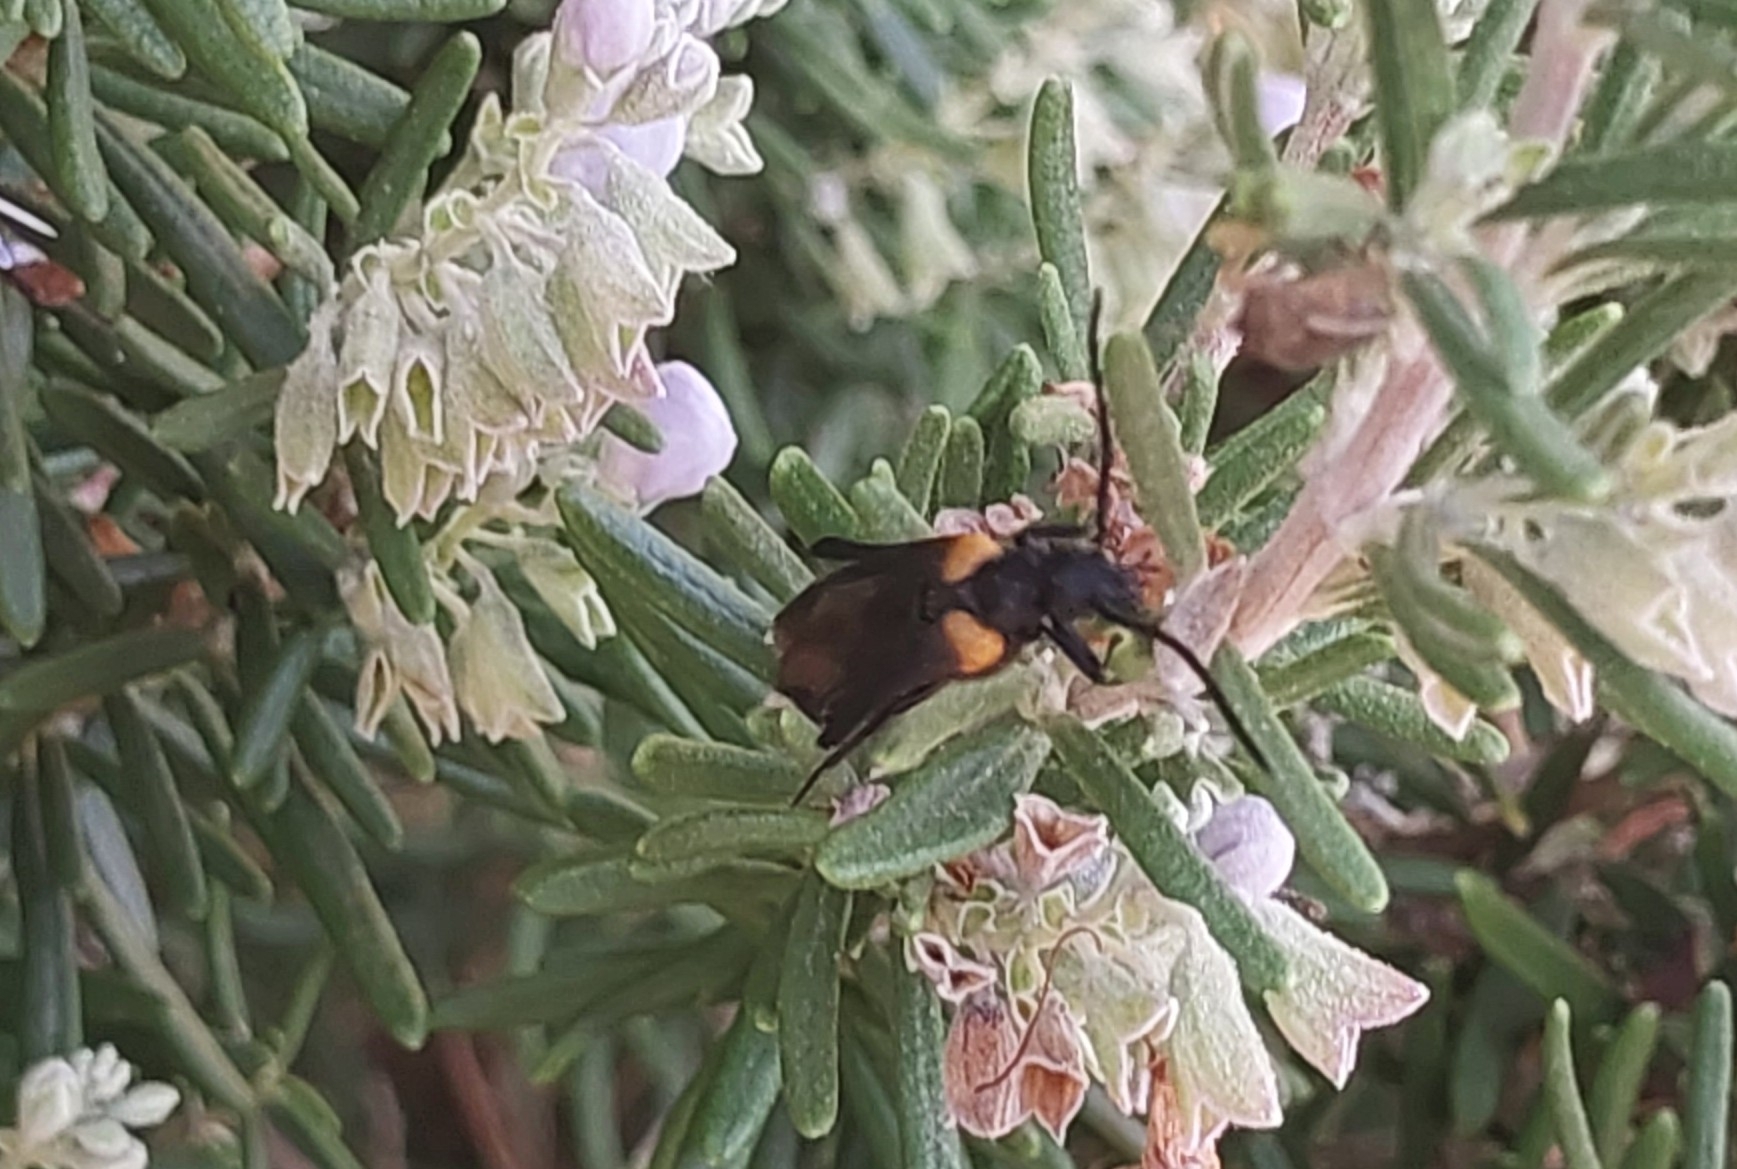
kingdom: Animalia
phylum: Arthropoda
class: Insecta
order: Coleoptera
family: Meloidae
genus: Sitaris
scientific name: Sitaris muralis
